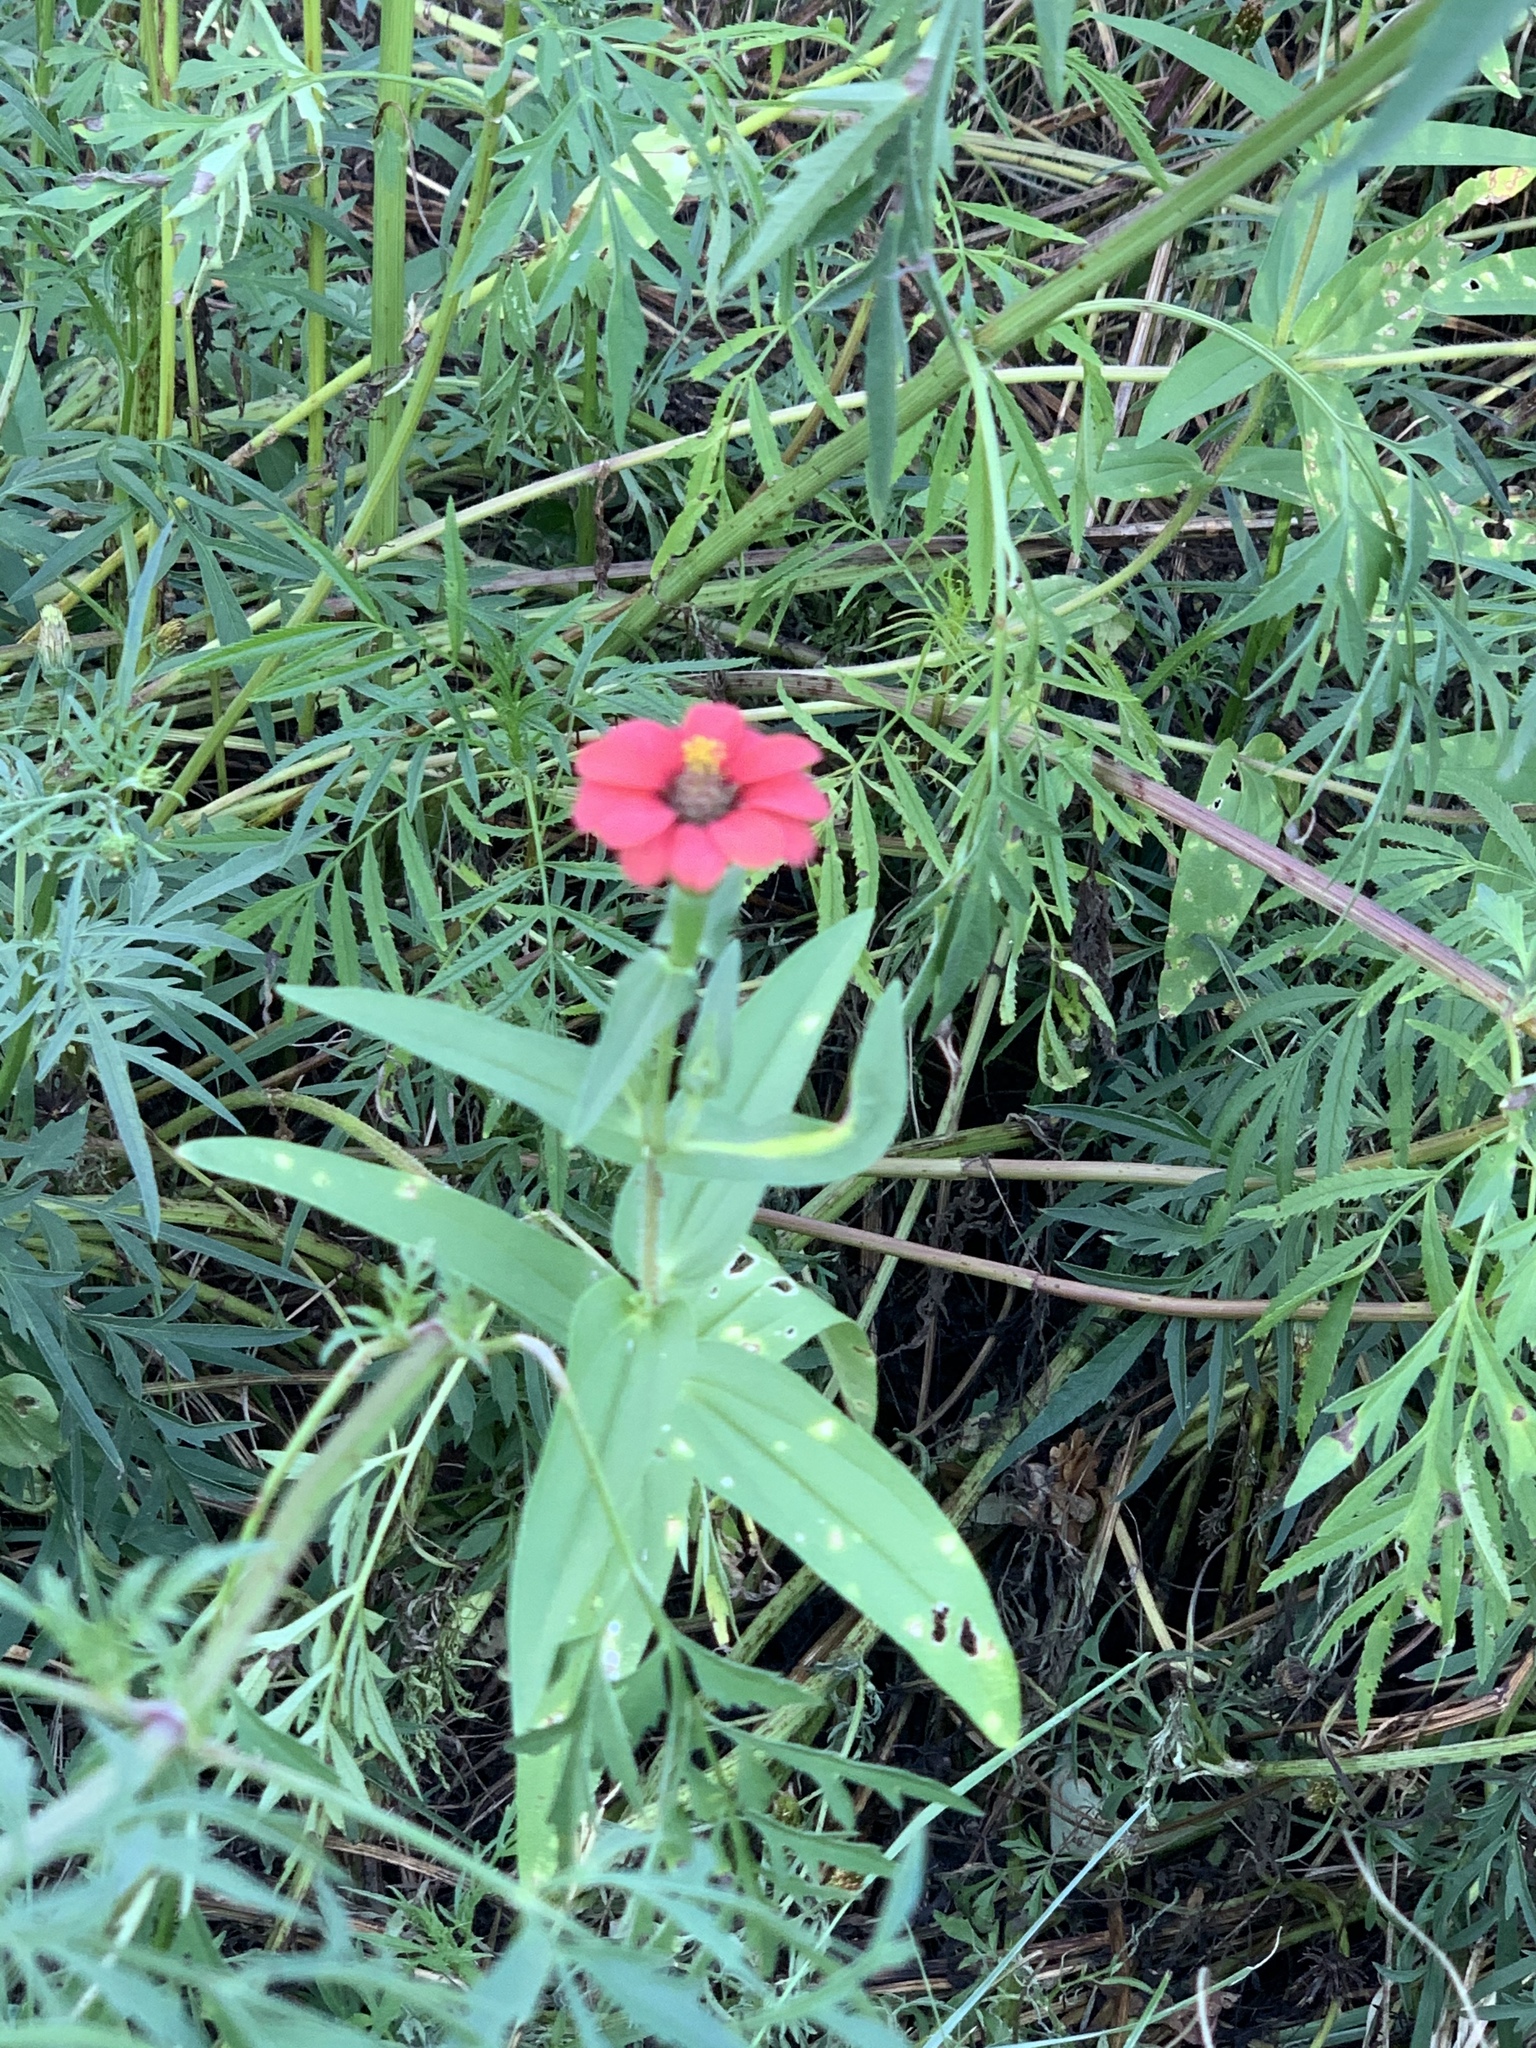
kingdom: Plantae
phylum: Tracheophyta
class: Magnoliopsida
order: Asterales
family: Asteraceae
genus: Zinnia
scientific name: Zinnia peruviana
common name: Peruvian zinnia
